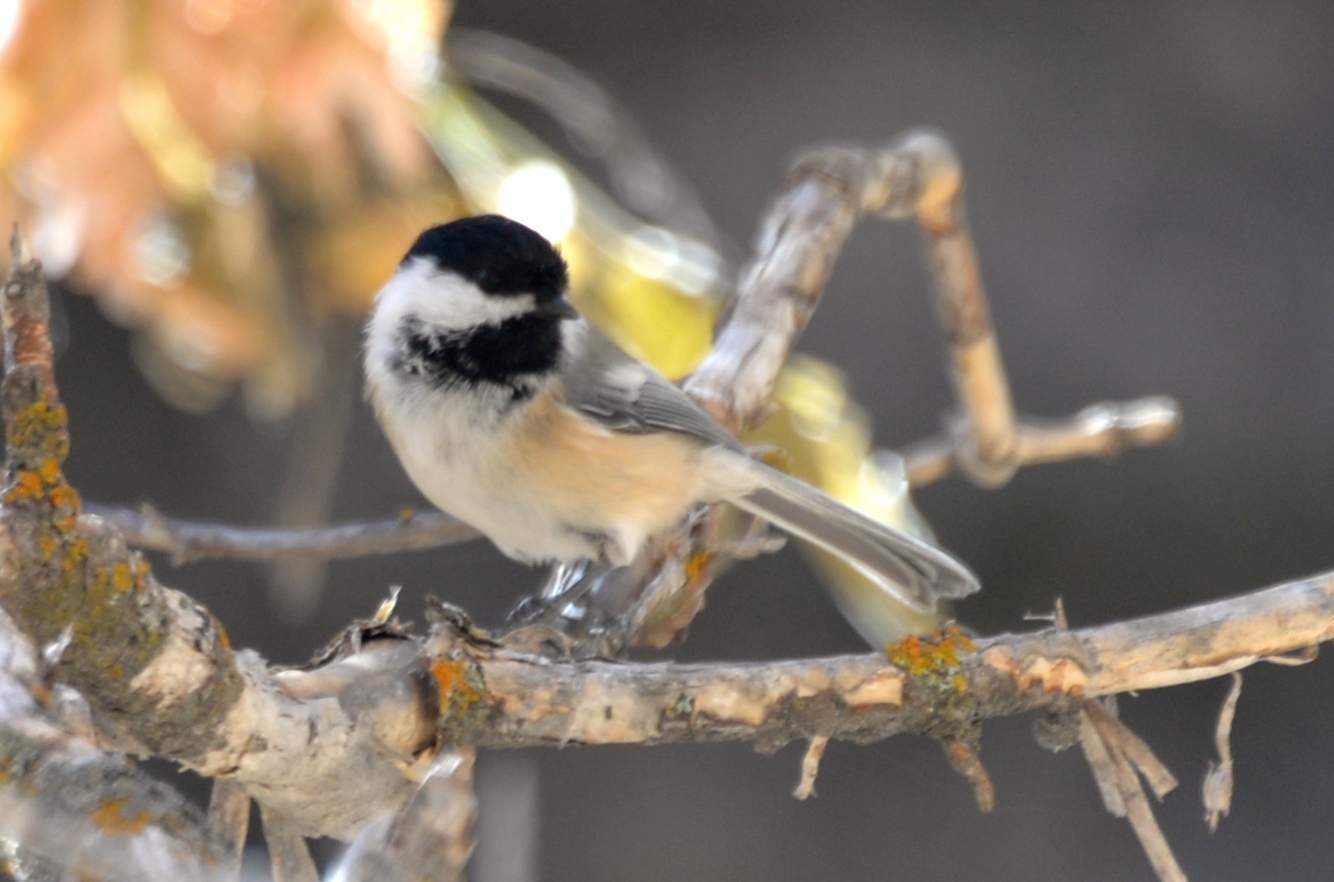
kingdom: Animalia
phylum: Chordata
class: Aves
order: Passeriformes
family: Paridae
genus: Poecile
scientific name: Poecile atricapillus
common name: Black-capped chickadee
